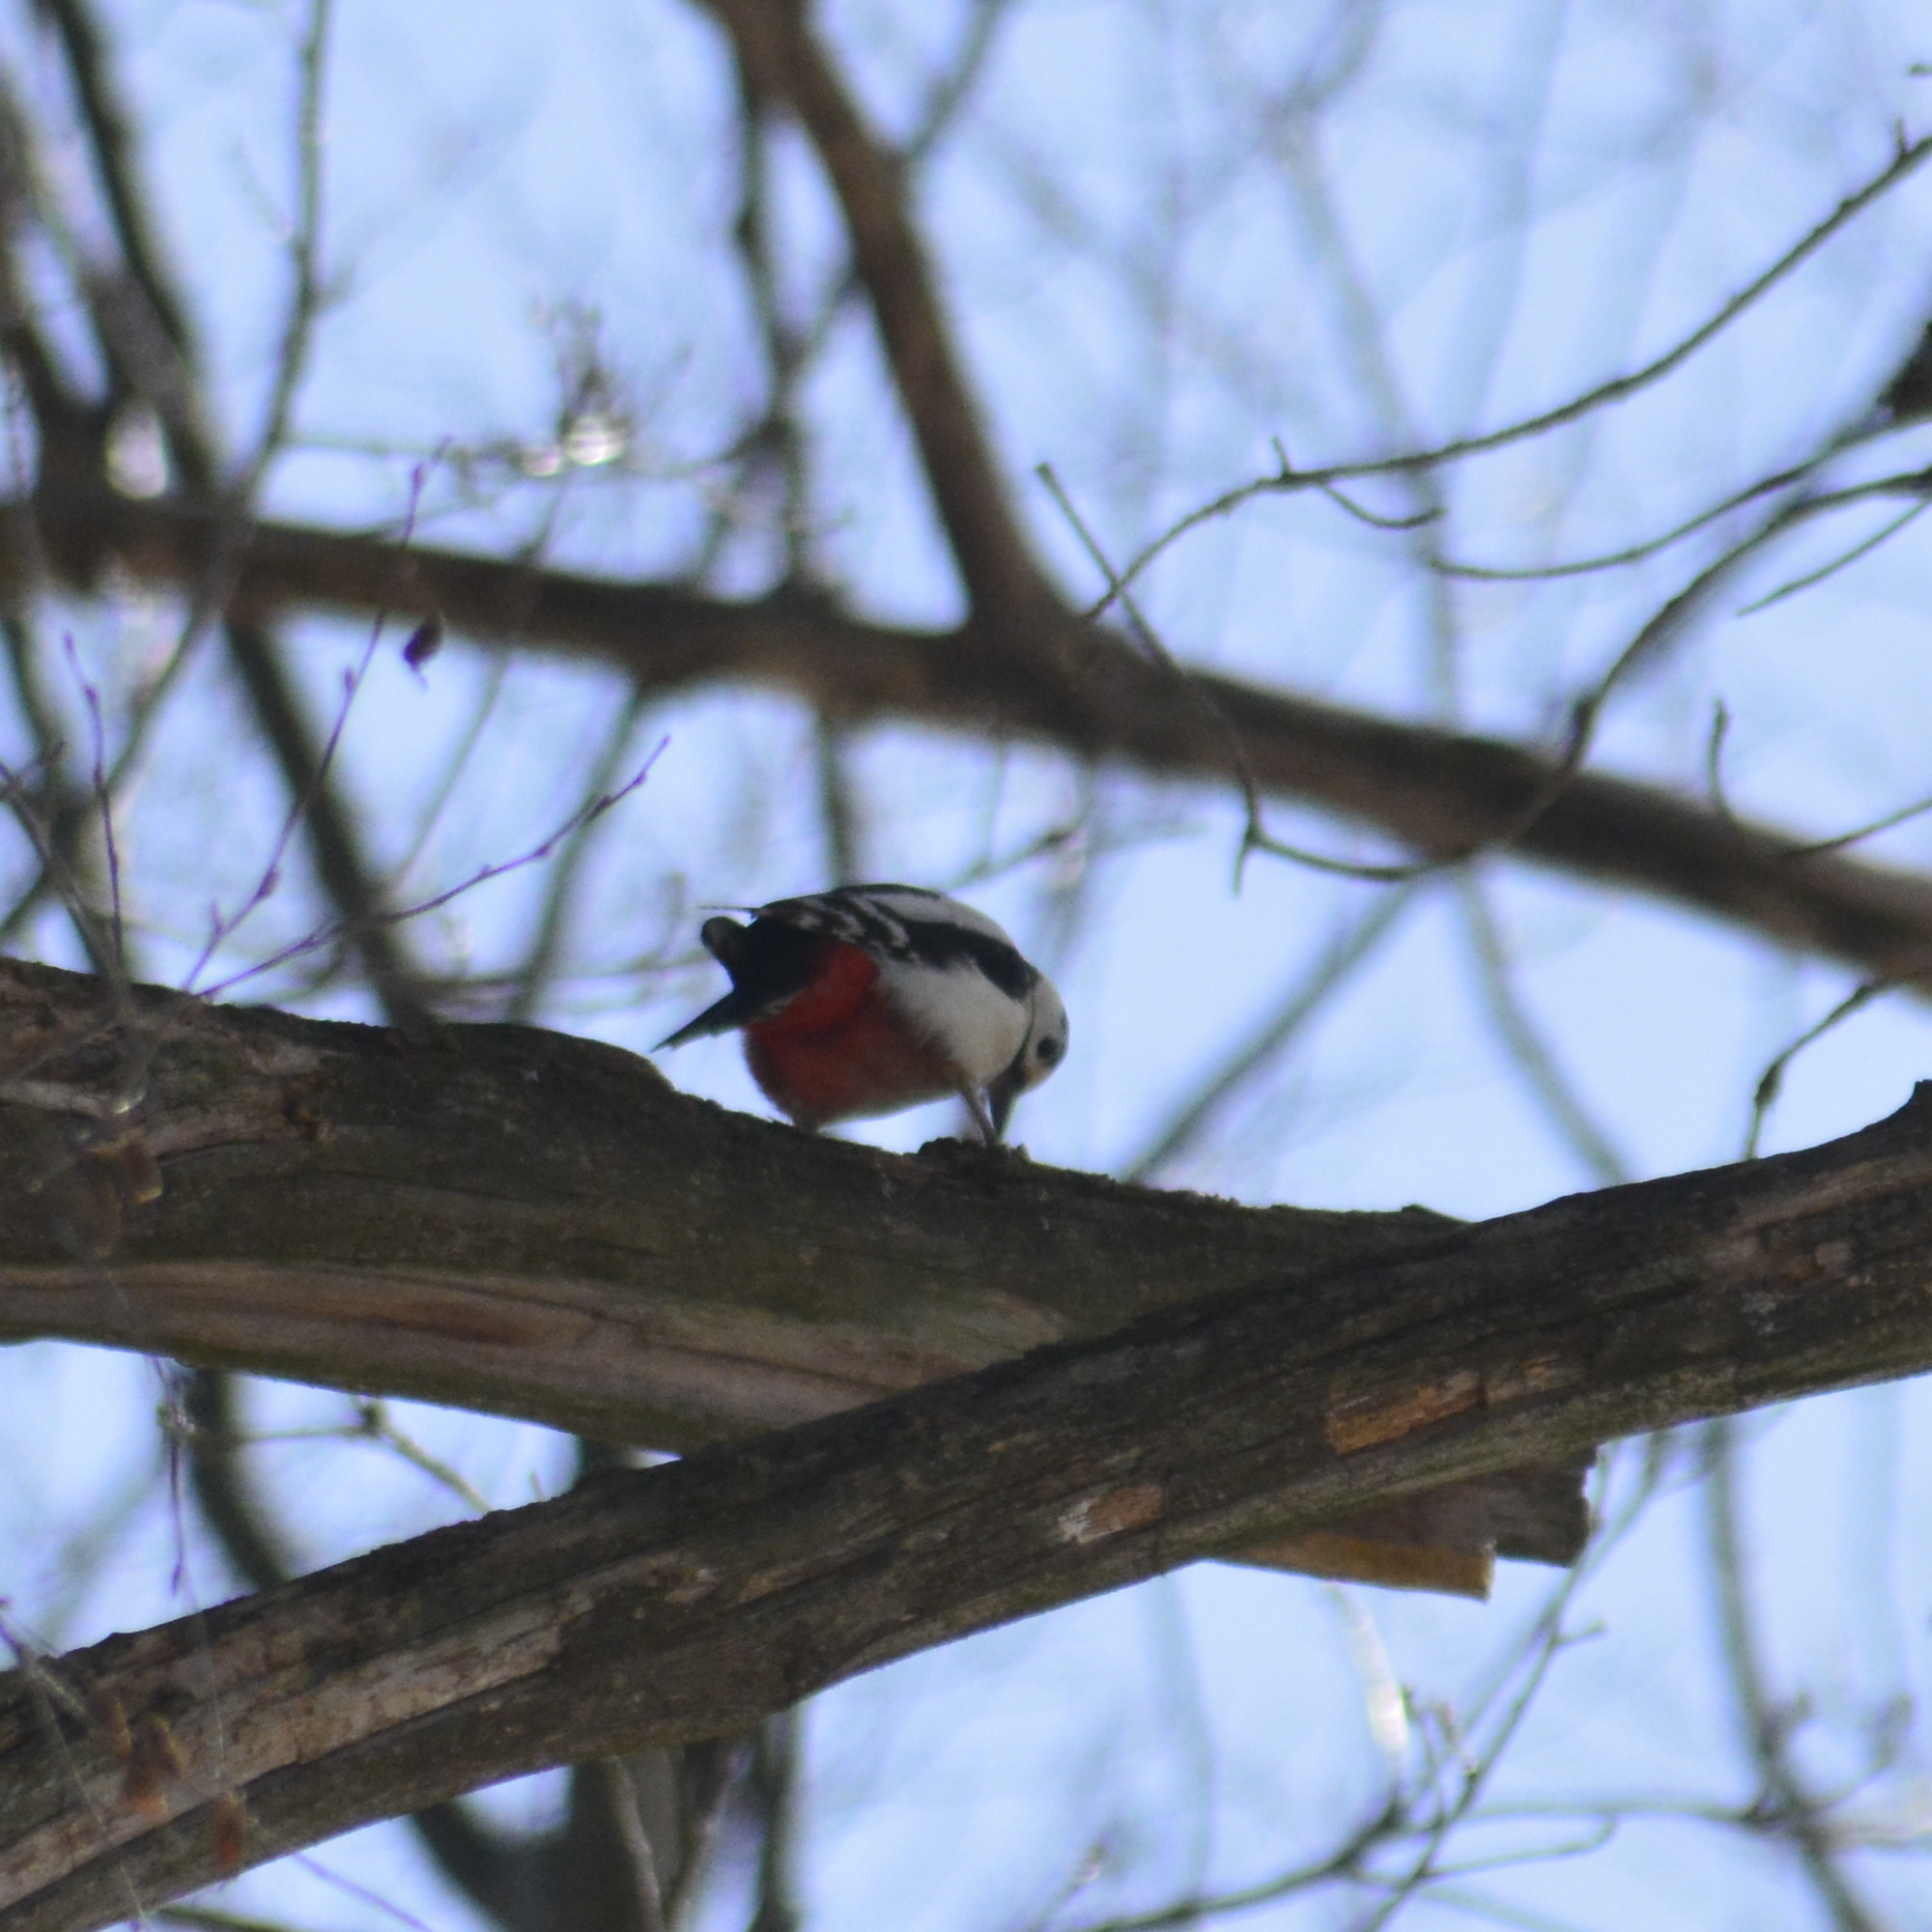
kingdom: Animalia
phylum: Chordata
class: Aves
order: Piciformes
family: Picidae
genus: Dendrocopos
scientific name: Dendrocopos major
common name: Great spotted woodpecker
